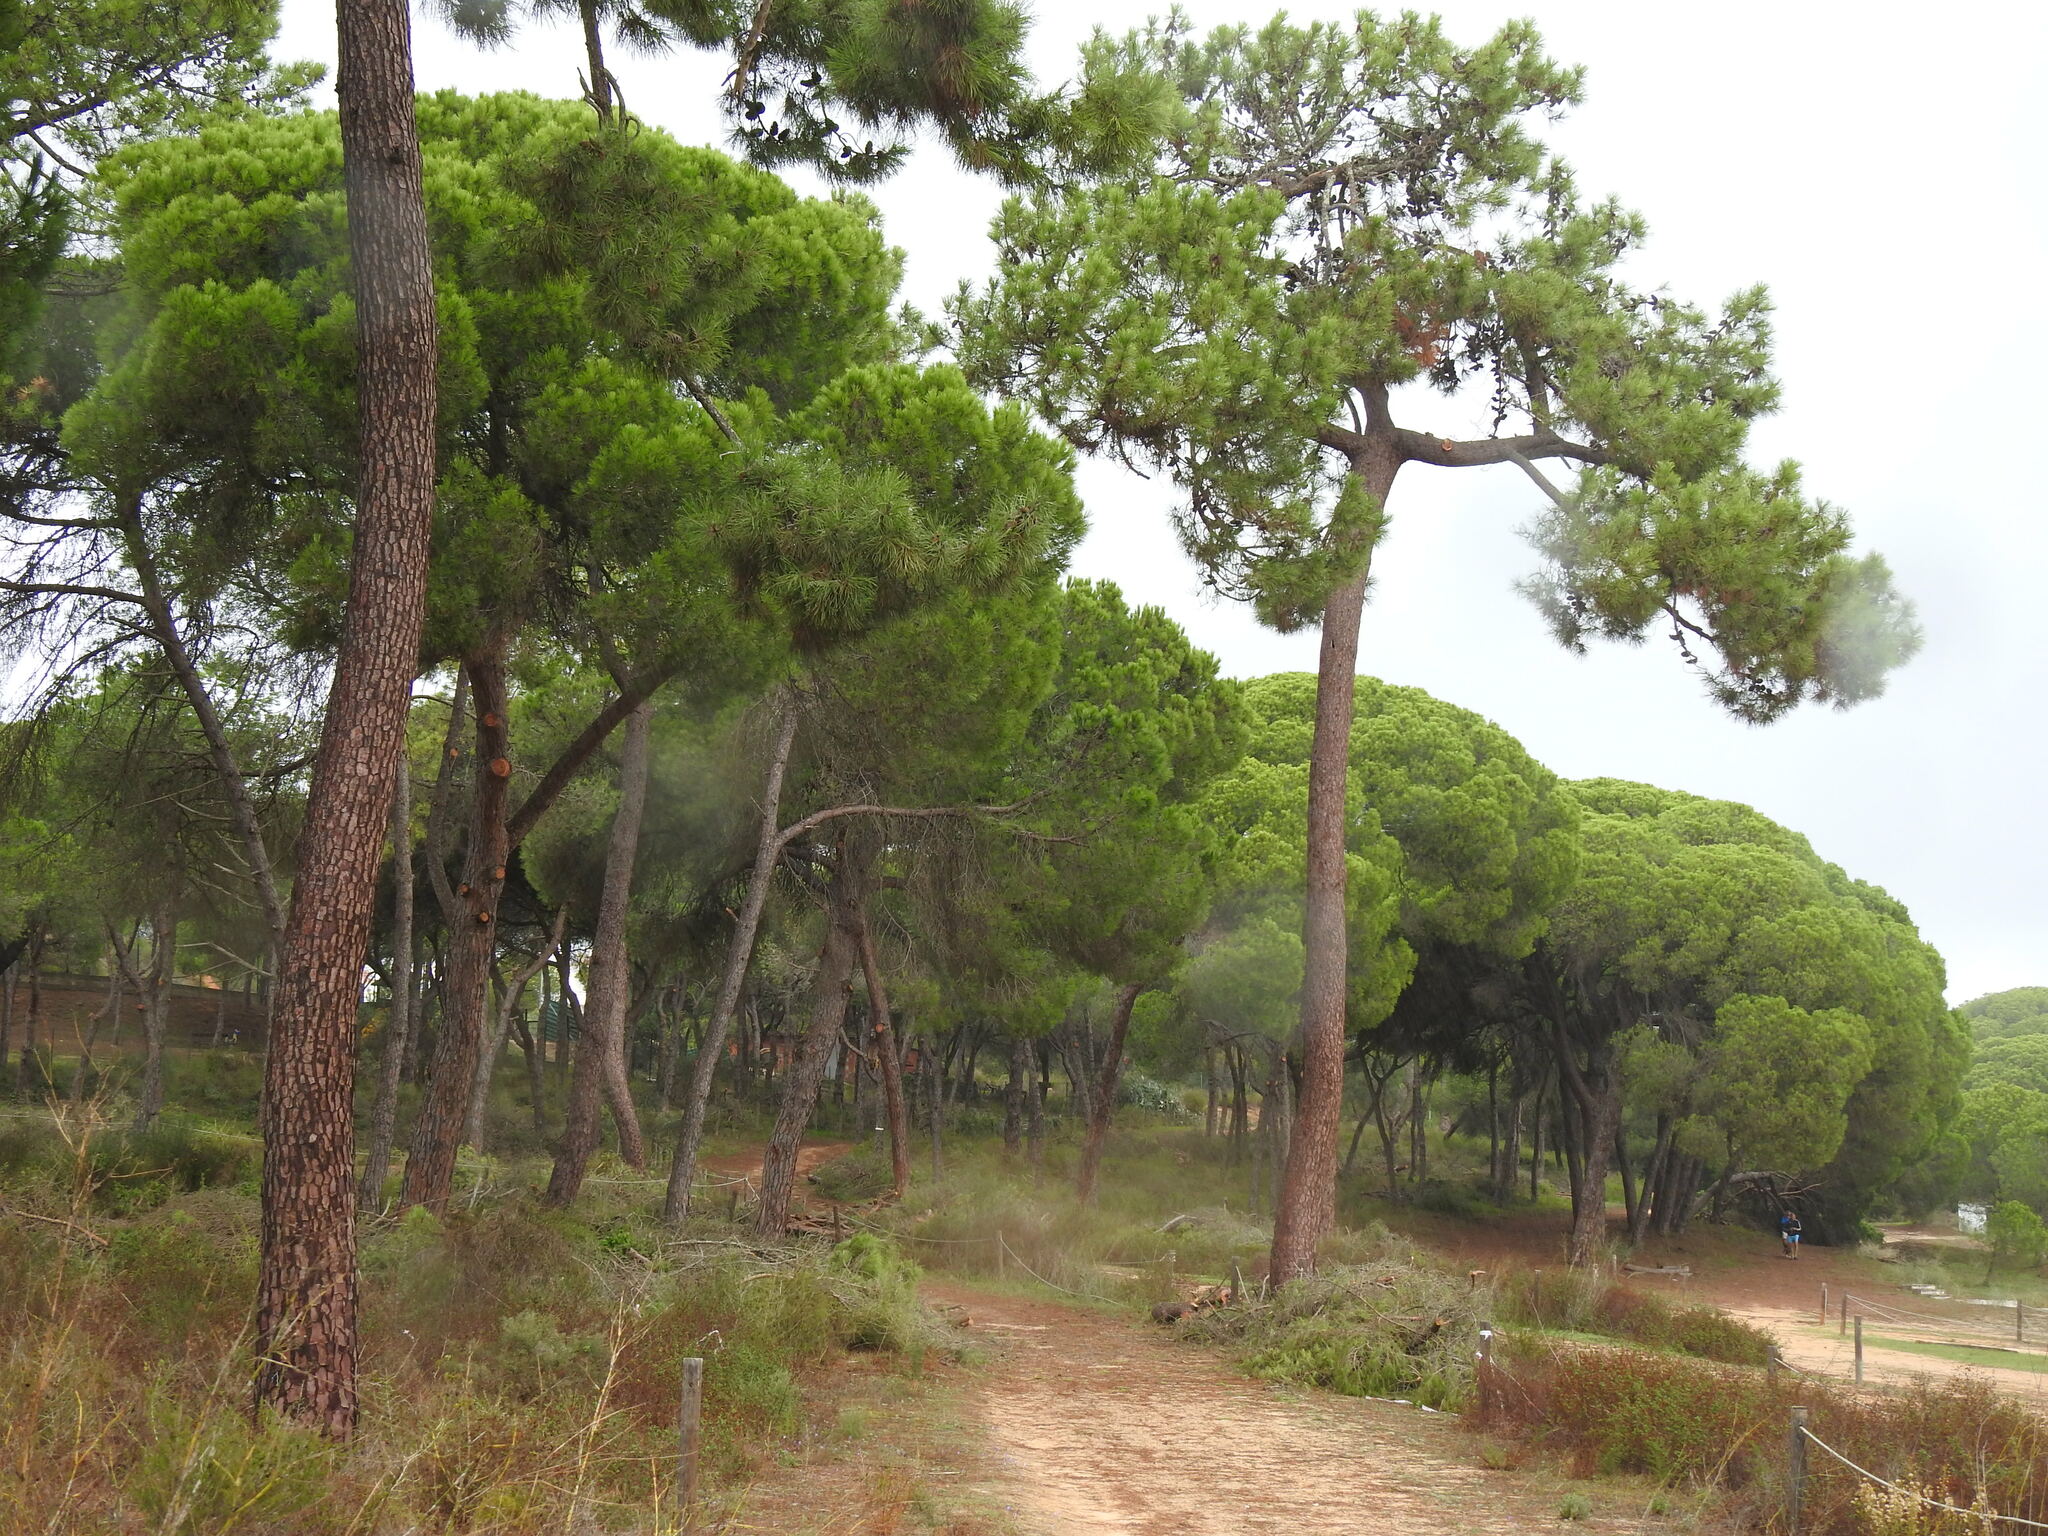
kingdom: Plantae
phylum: Tracheophyta
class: Pinopsida
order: Pinales
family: Pinaceae
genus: Pinus
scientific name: Pinus pinea
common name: Italian stone pine
